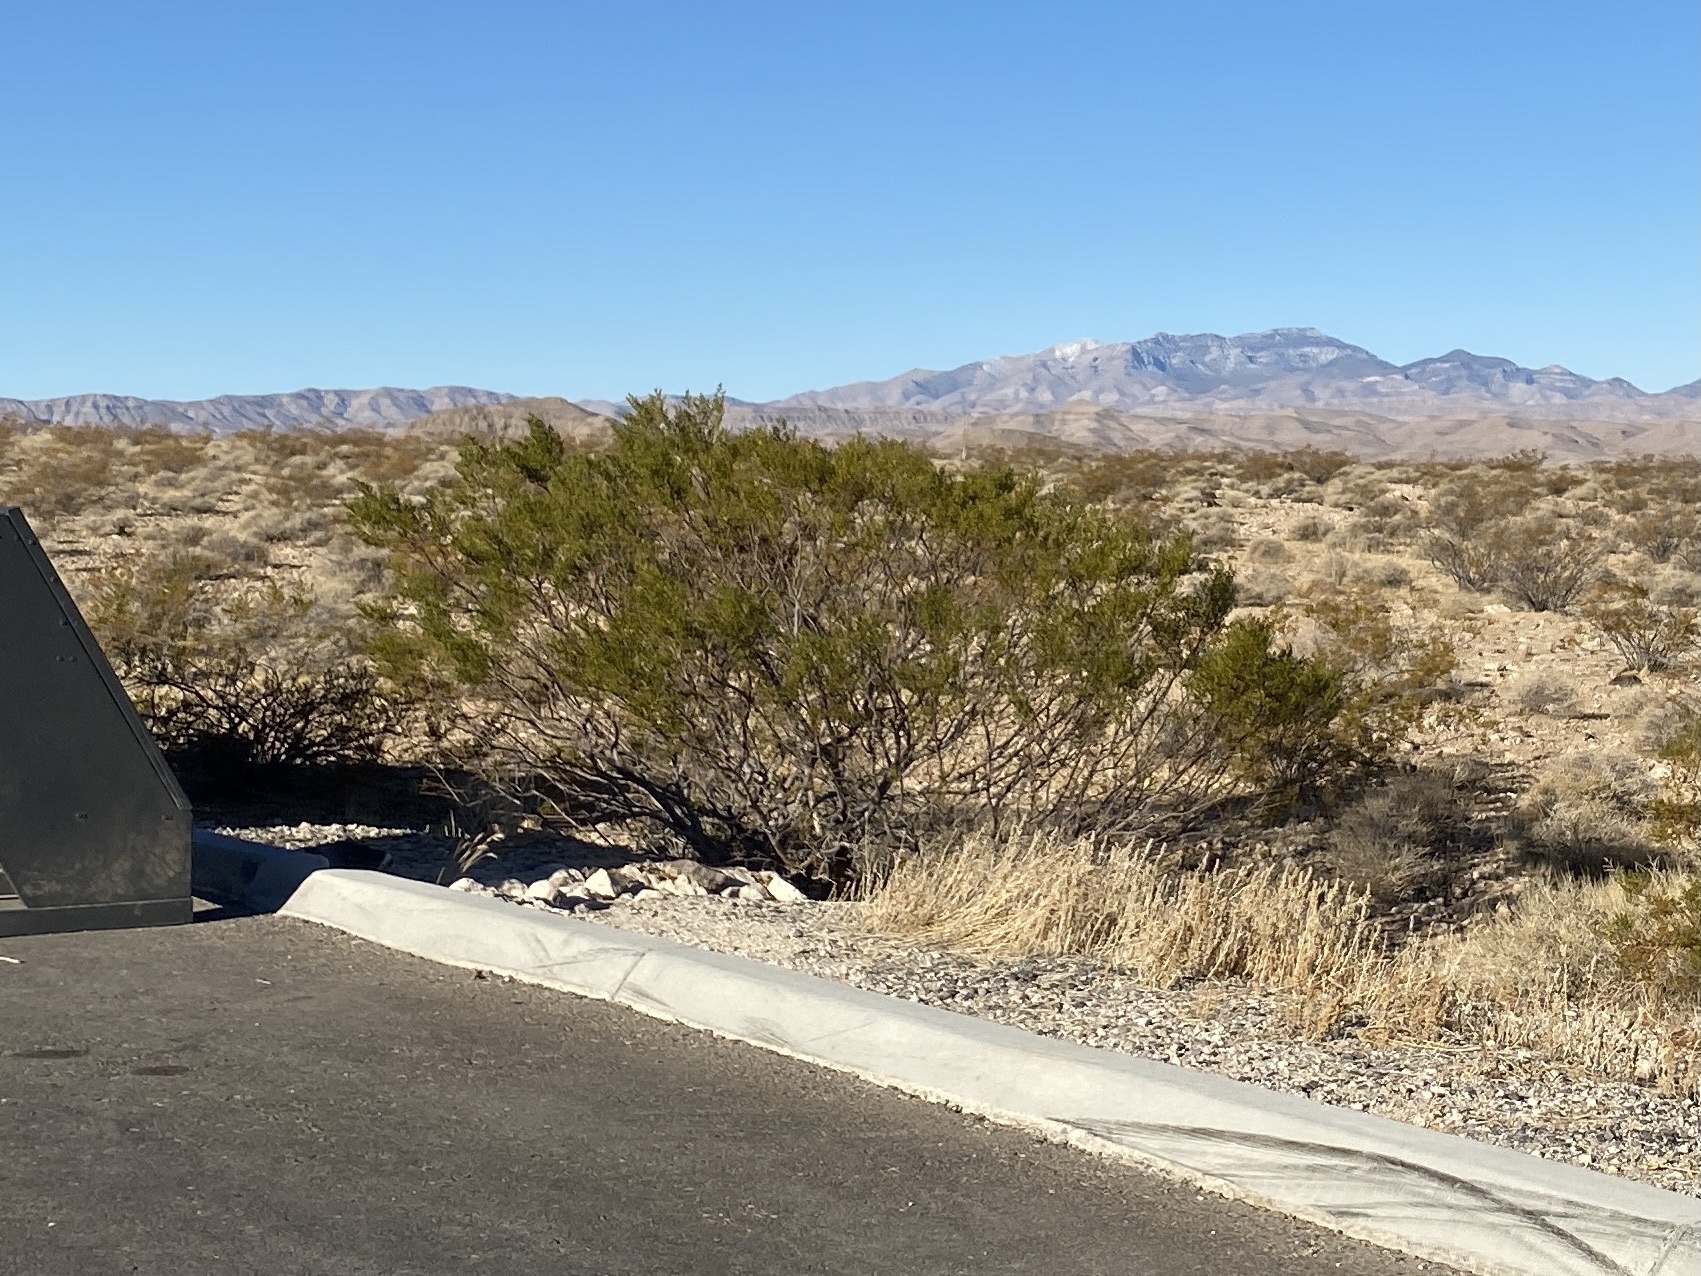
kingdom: Plantae
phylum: Tracheophyta
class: Magnoliopsida
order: Zygophyllales
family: Zygophyllaceae
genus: Larrea
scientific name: Larrea tridentata
